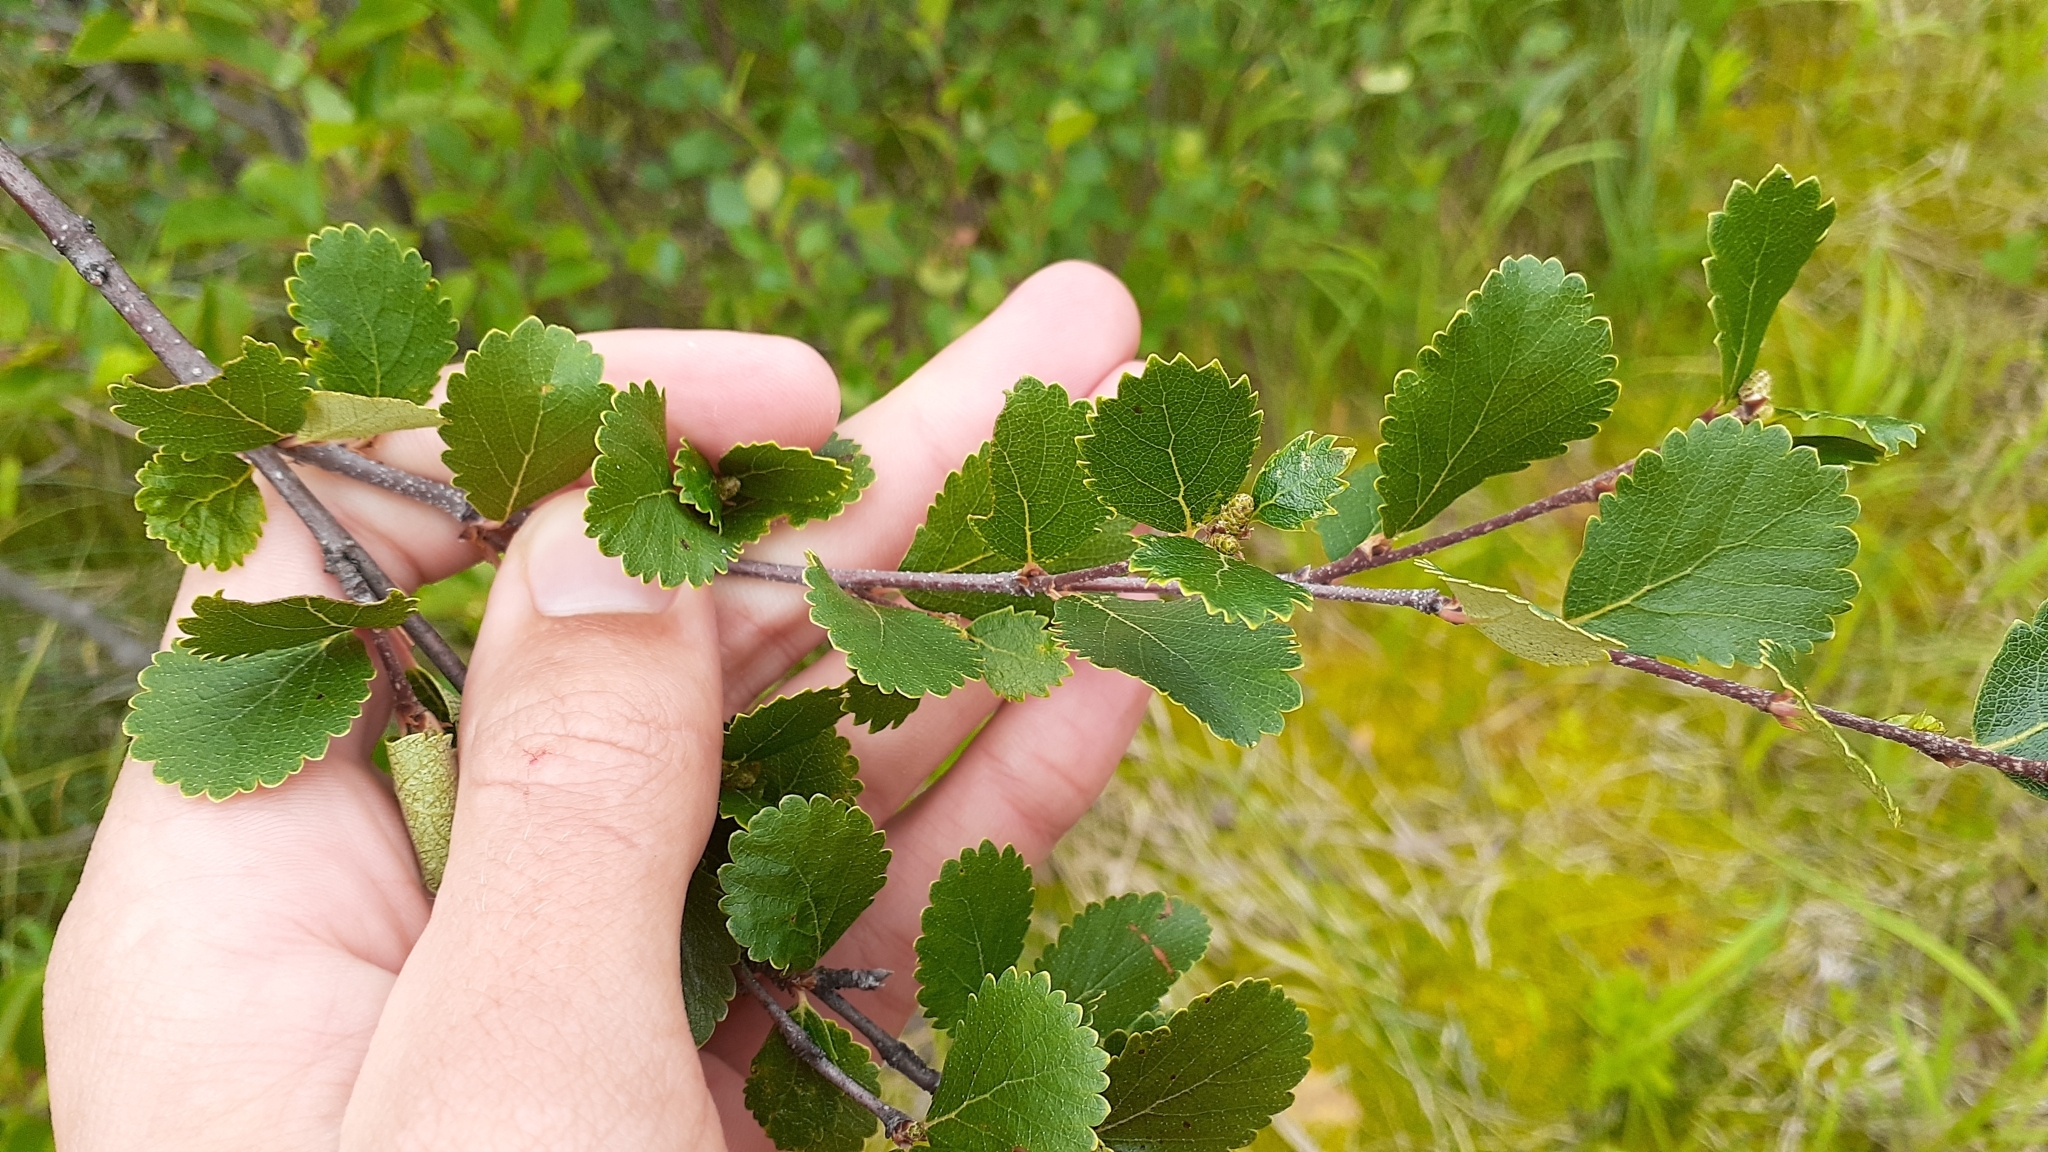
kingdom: Plantae
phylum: Tracheophyta
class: Magnoliopsida
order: Fagales
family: Betulaceae
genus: Betula
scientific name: Betula pumila
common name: Bog birch
